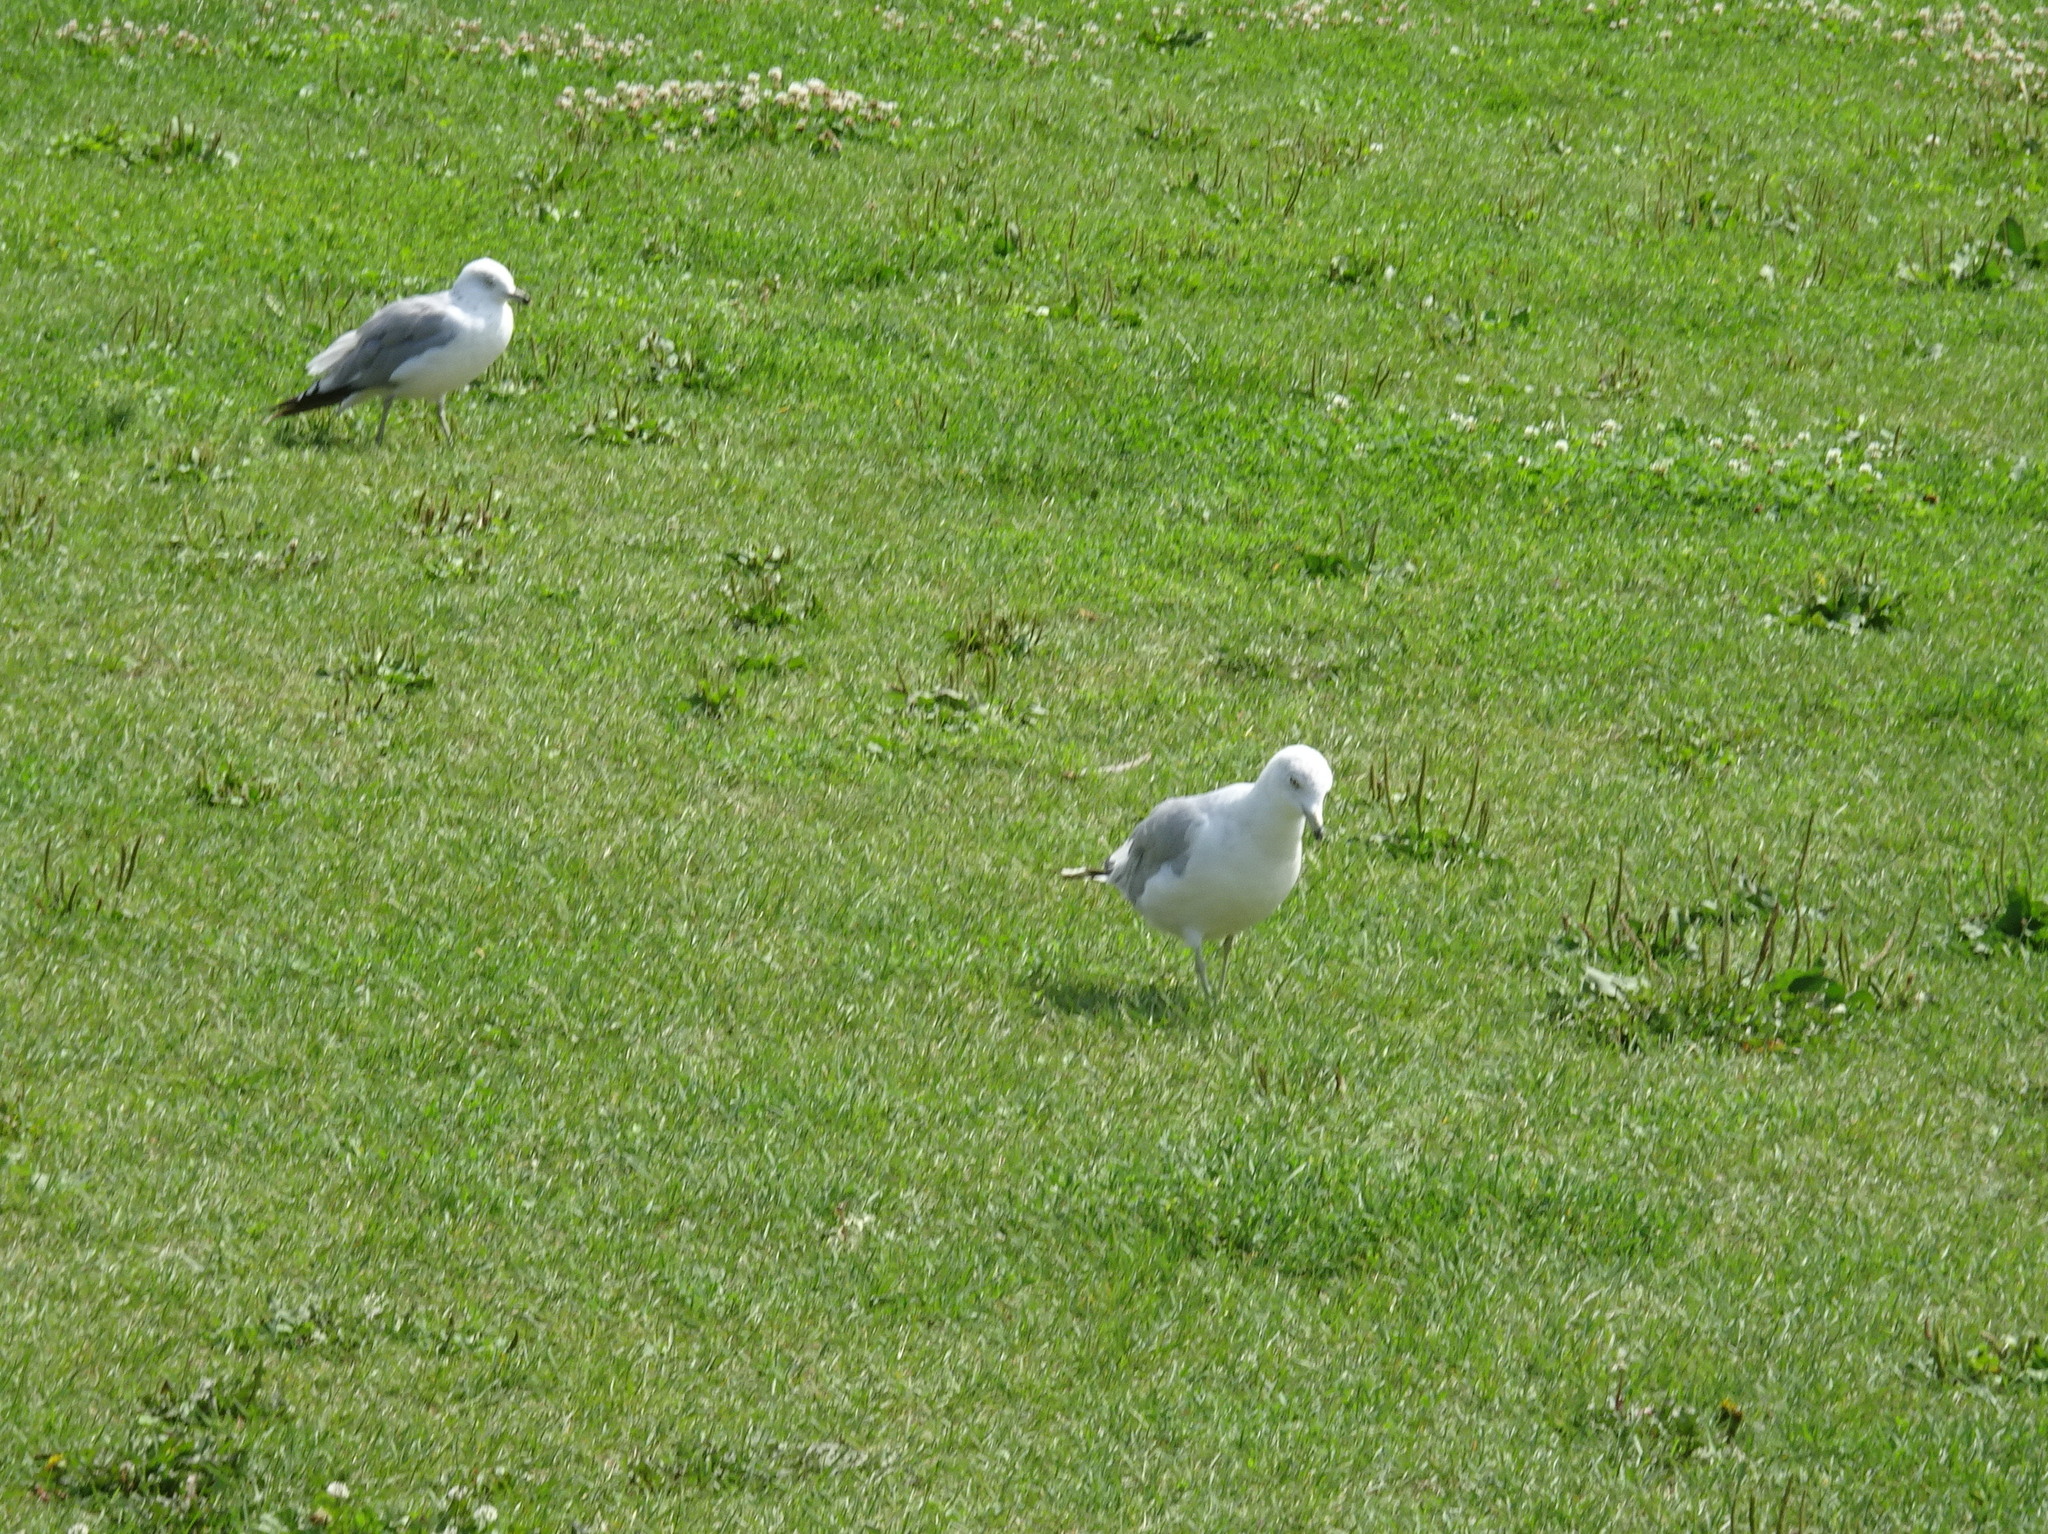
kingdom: Animalia
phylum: Chordata
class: Aves
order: Charadriiformes
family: Laridae
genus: Larus
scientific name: Larus delawarensis
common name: Ring-billed gull
